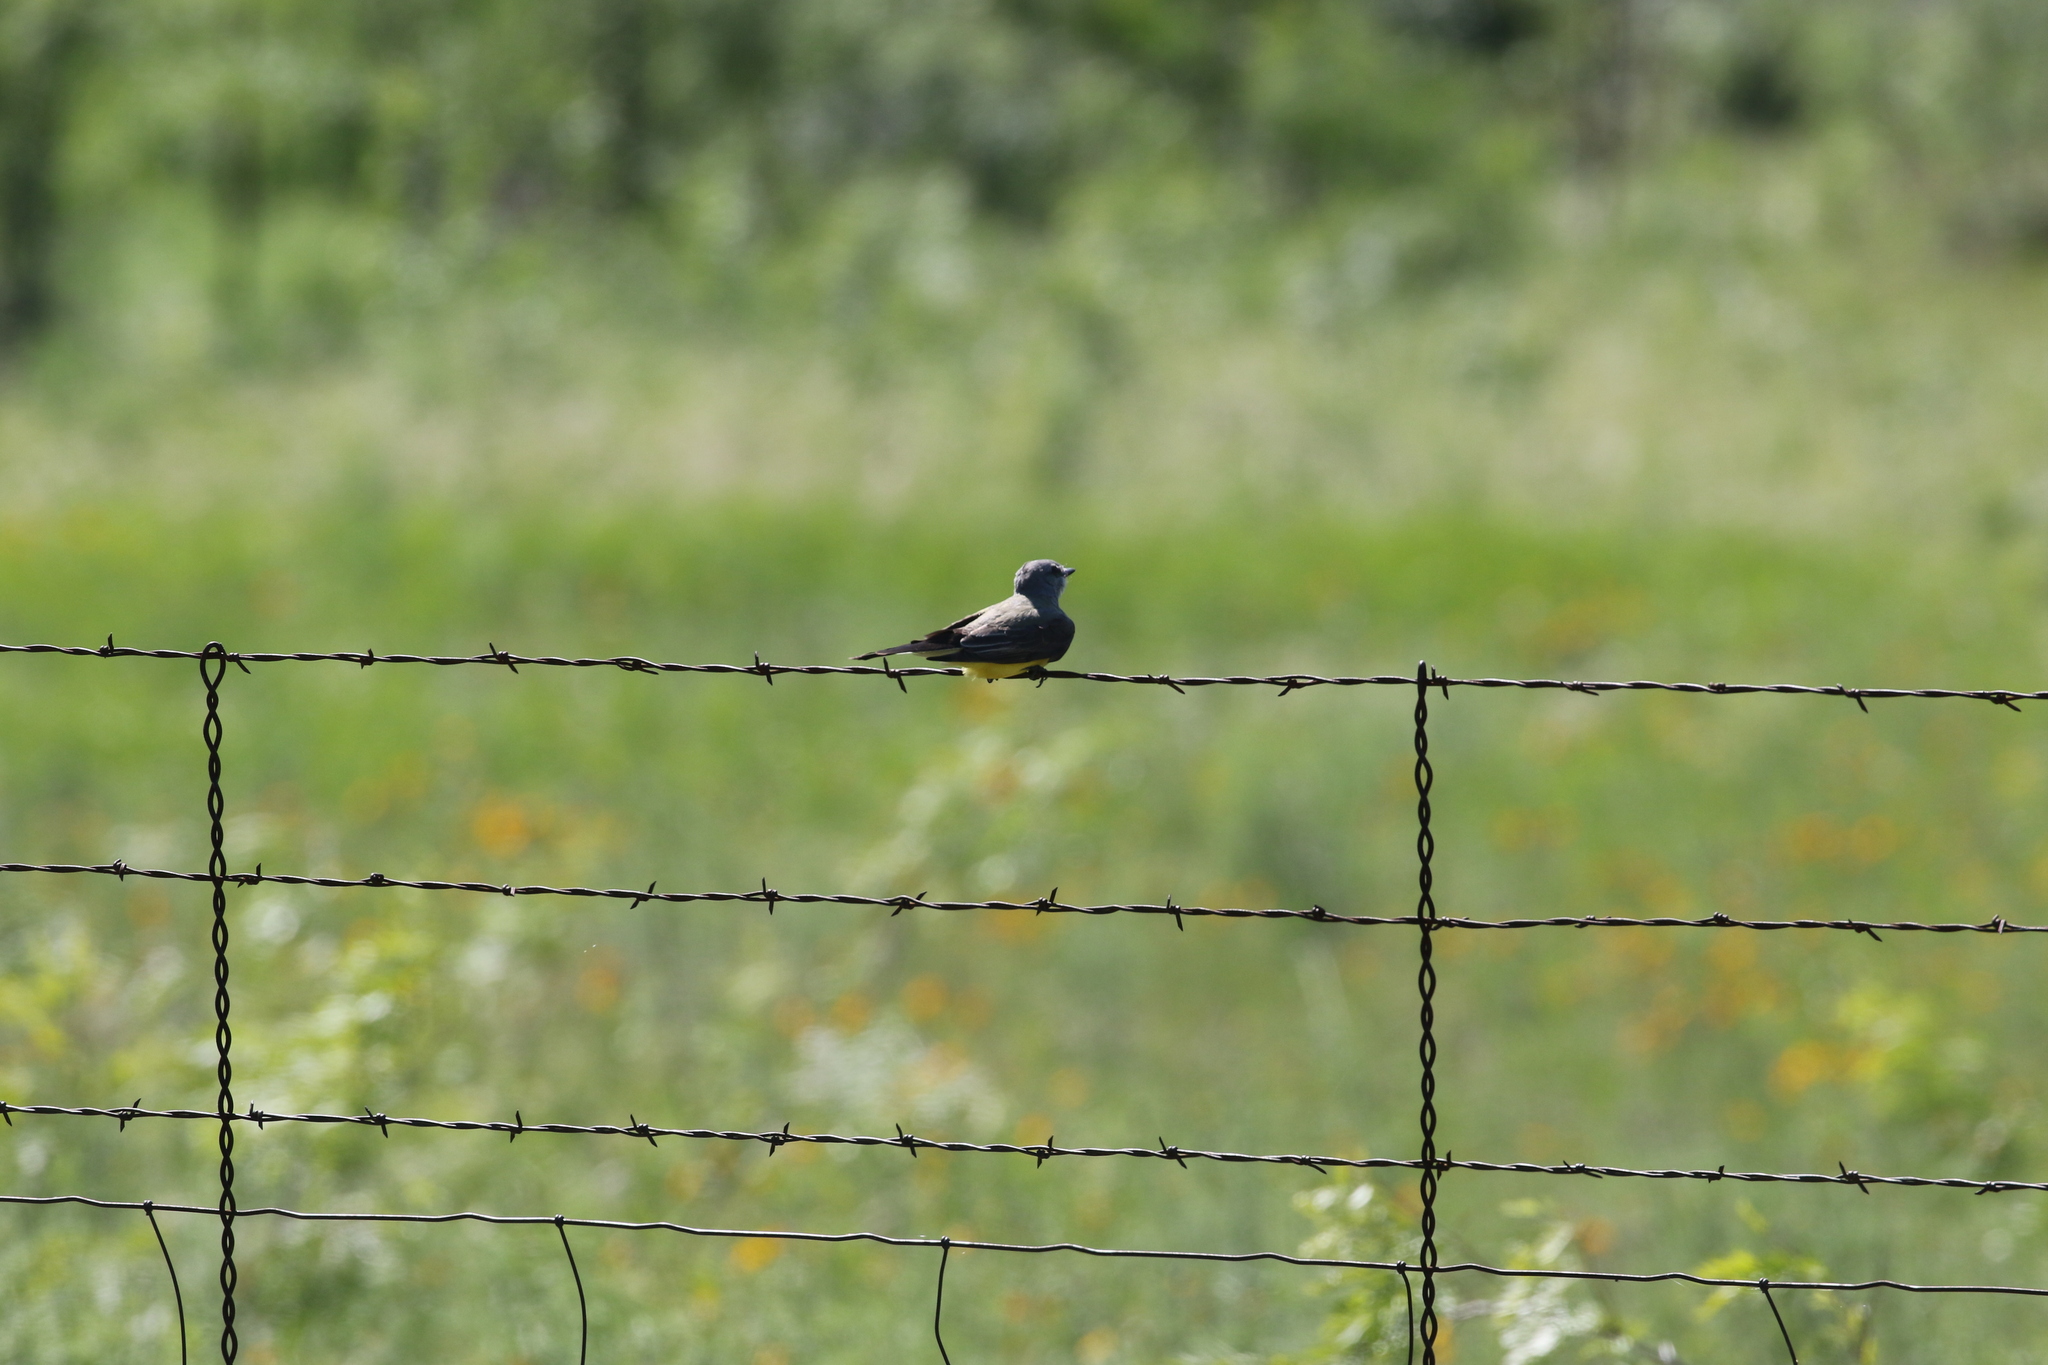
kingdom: Animalia
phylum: Chordata
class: Aves
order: Passeriformes
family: Tyrannidae
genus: Tyrannus
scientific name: Tyrannus verticalis
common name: Western kingbird
